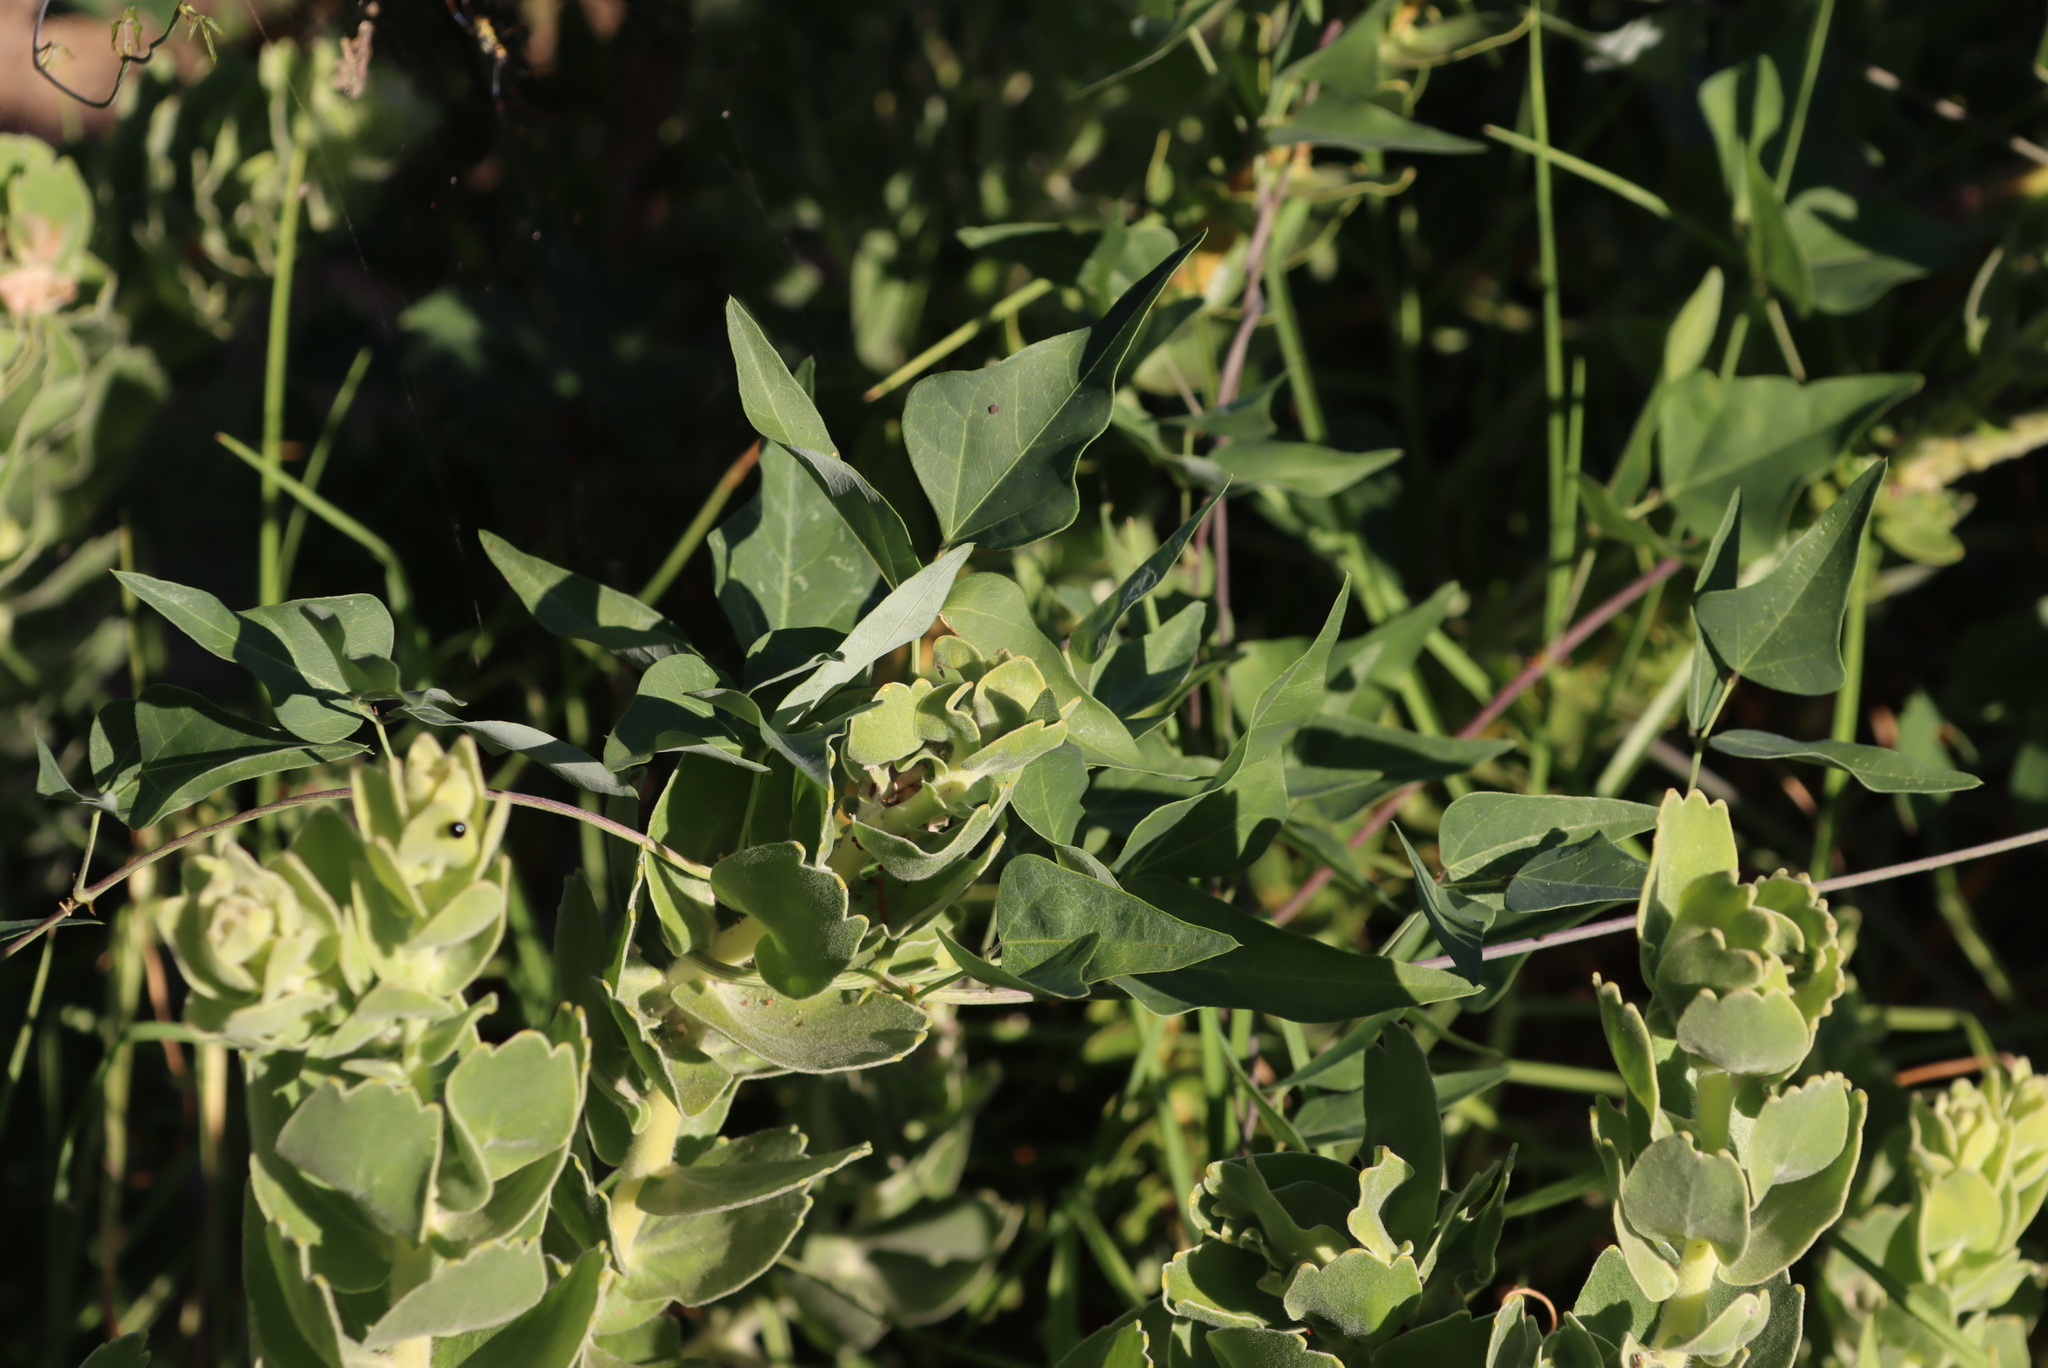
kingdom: Plantae
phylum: Tracheophyta
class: Magnoliopsida
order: Fabales
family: Fabaceae
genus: Dipogon
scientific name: Dipogon lignosus
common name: Okie bean
